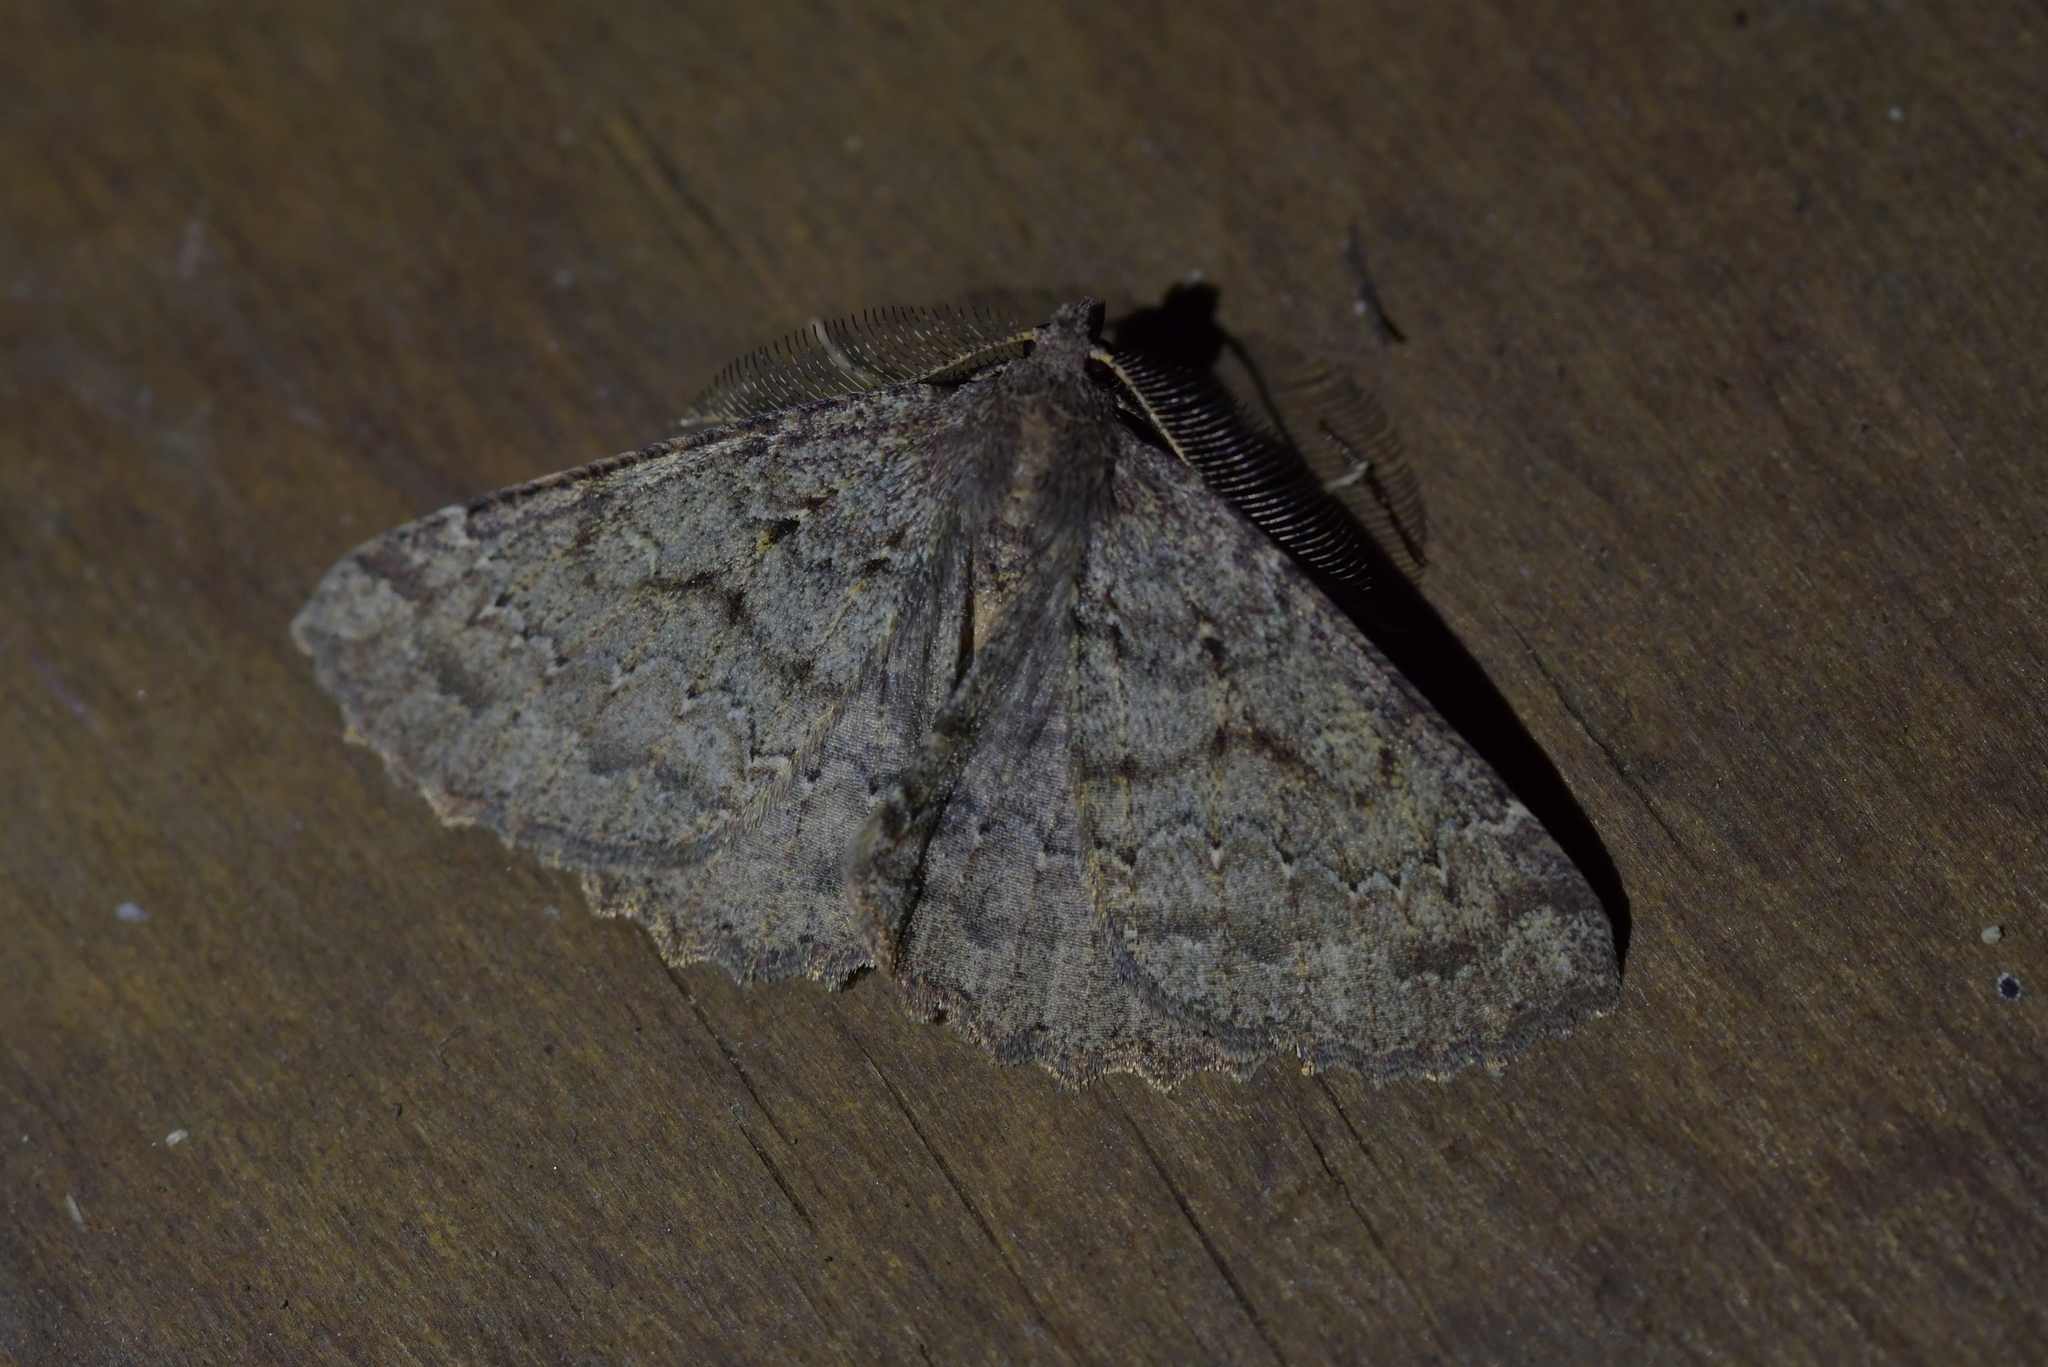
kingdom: Animalia
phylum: Arthropoda
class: Insecta
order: Lepidoptera
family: Geometridae
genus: Cleora
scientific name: Cleora scriptaria
